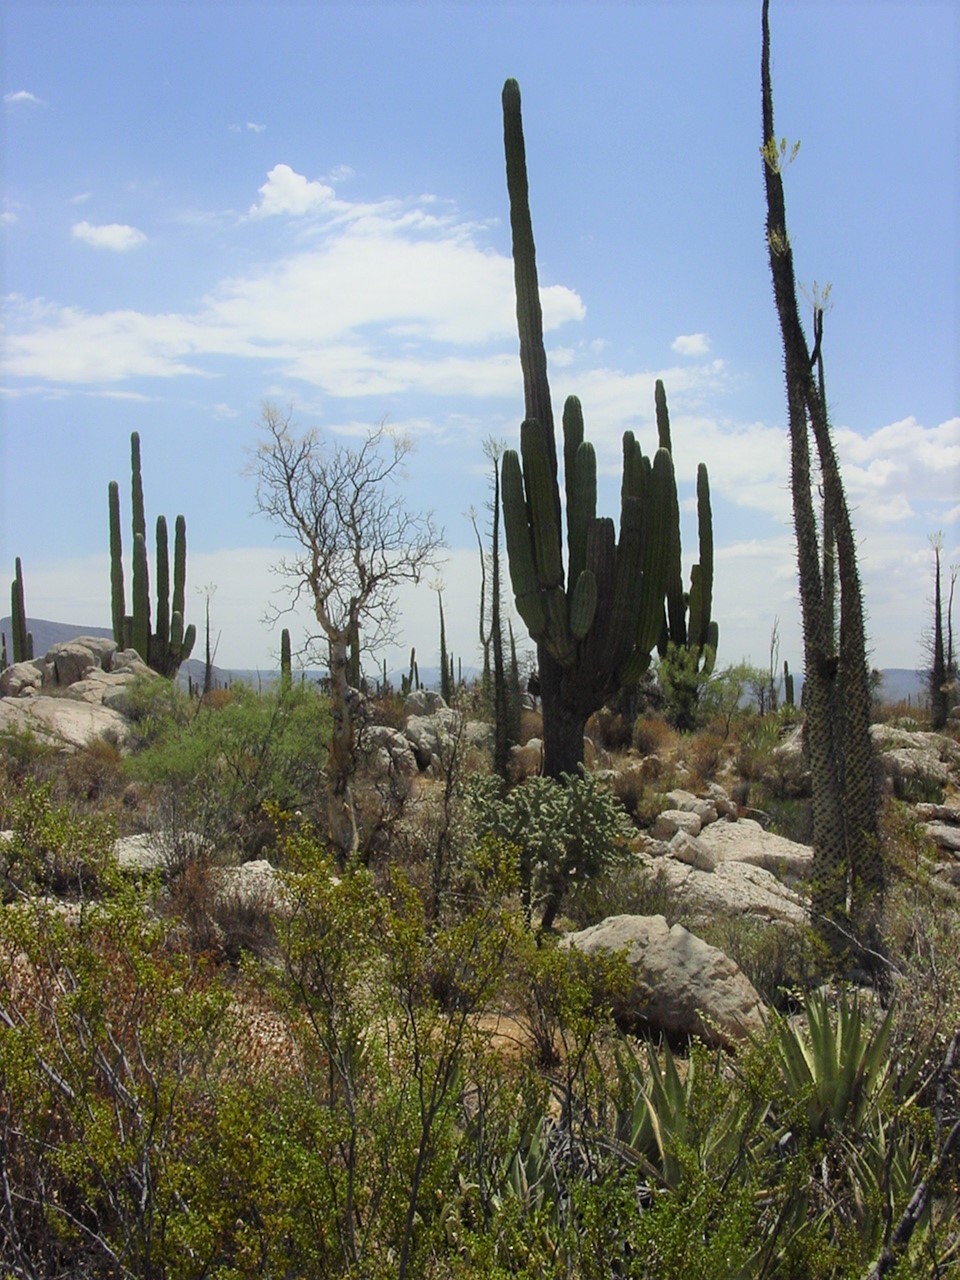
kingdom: Plantae
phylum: Tracheophyta
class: Magnoliopsida
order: Caryophyllales
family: Cactaceae
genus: Pachycereus
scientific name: Pachycereus pringlei
